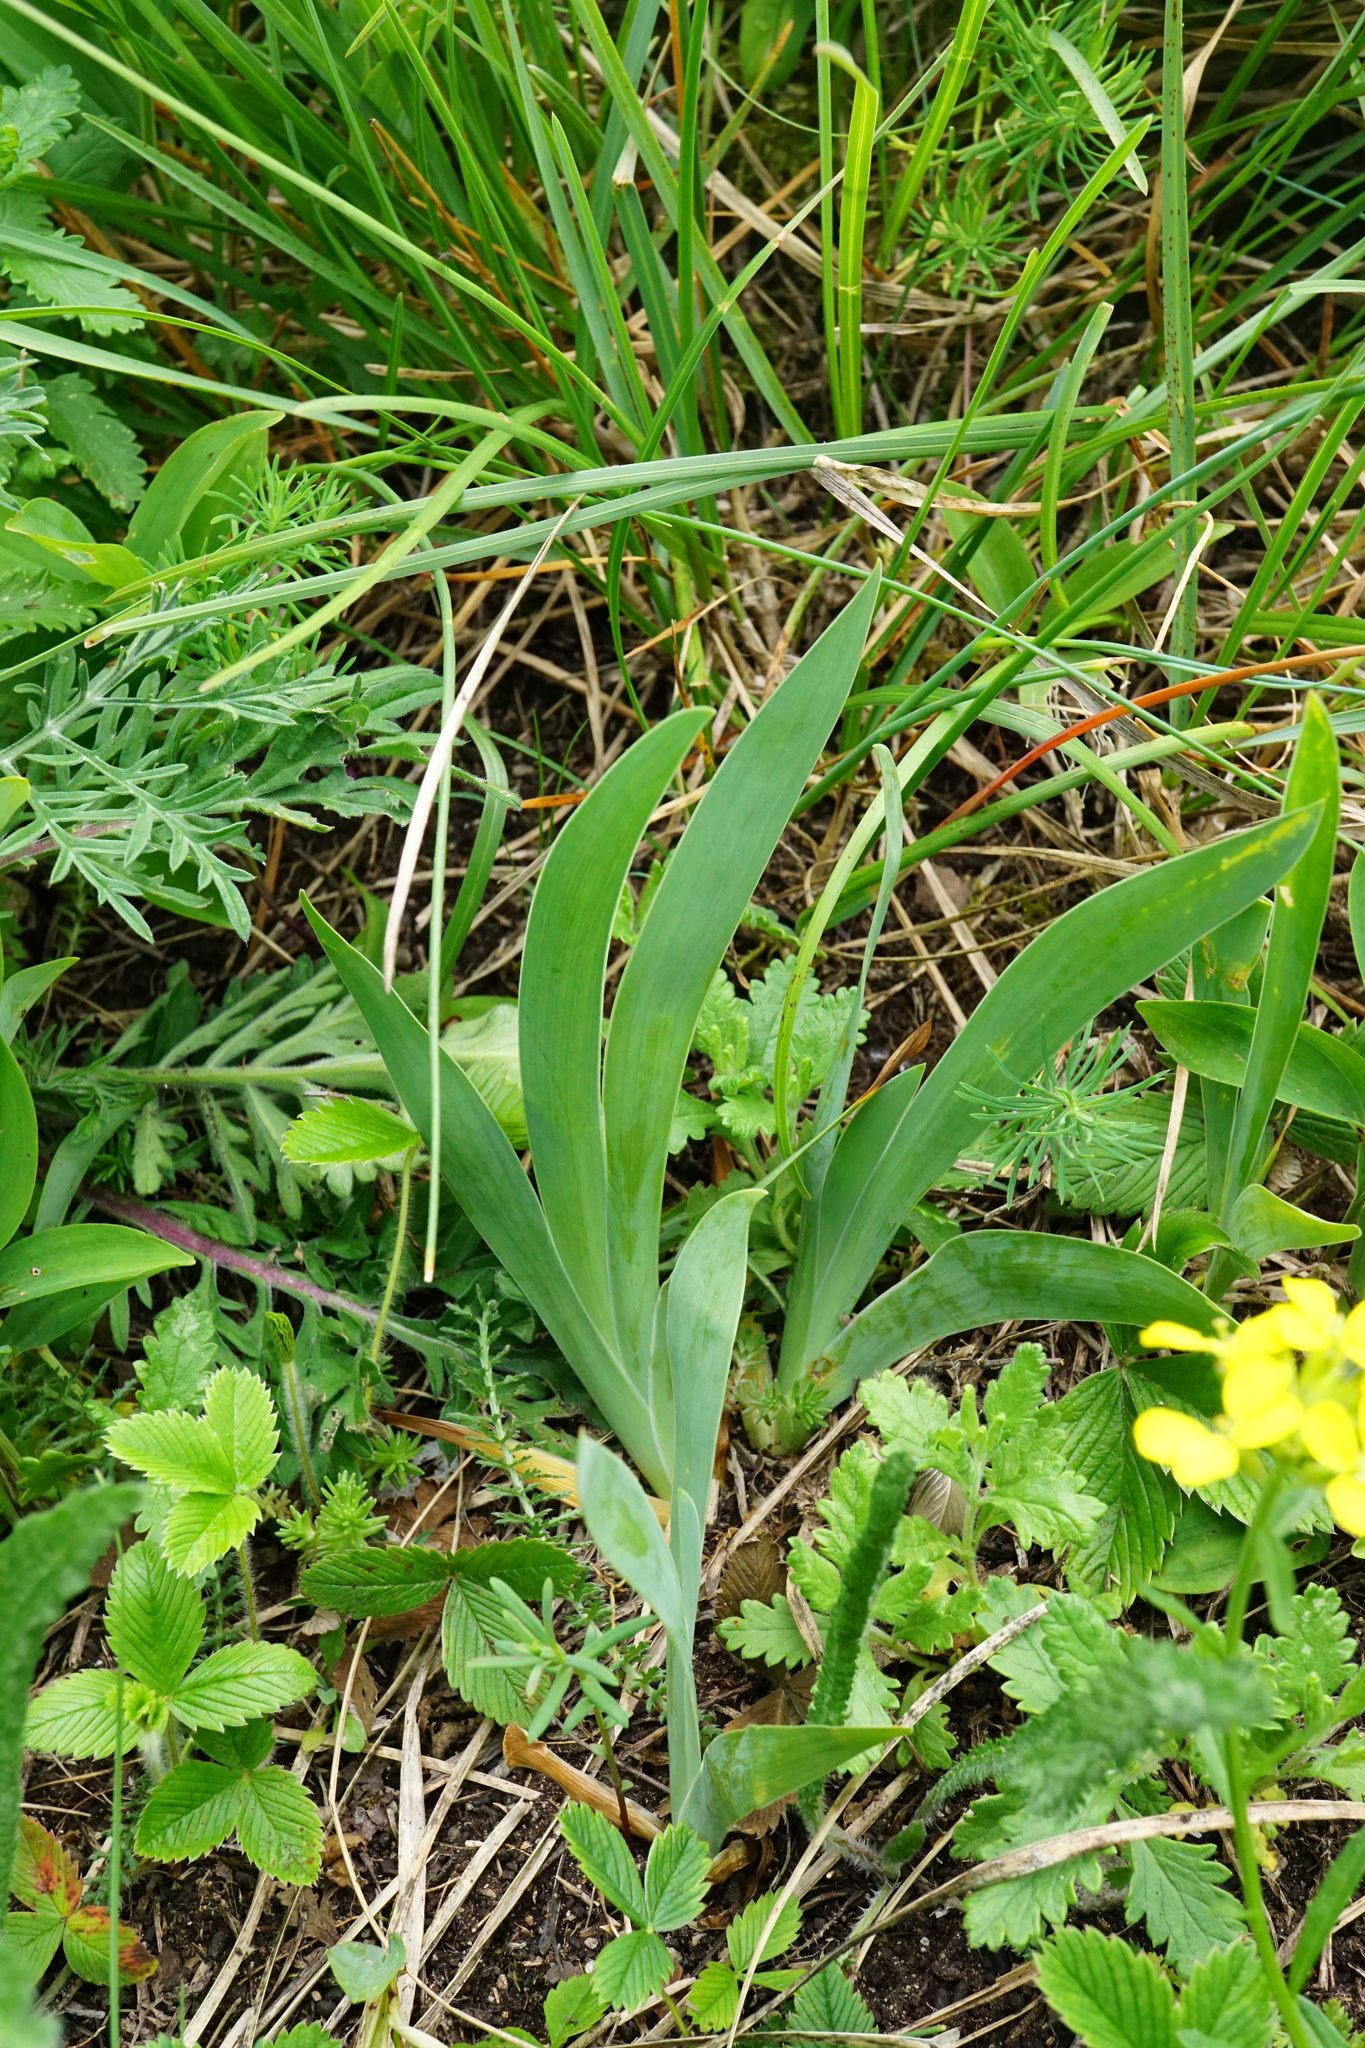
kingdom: Plantae
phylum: Tracheophyta
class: Liliopsida
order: Asparagales
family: Iridaceae
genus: Iris
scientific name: Iris pumila
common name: Dwarf iris
